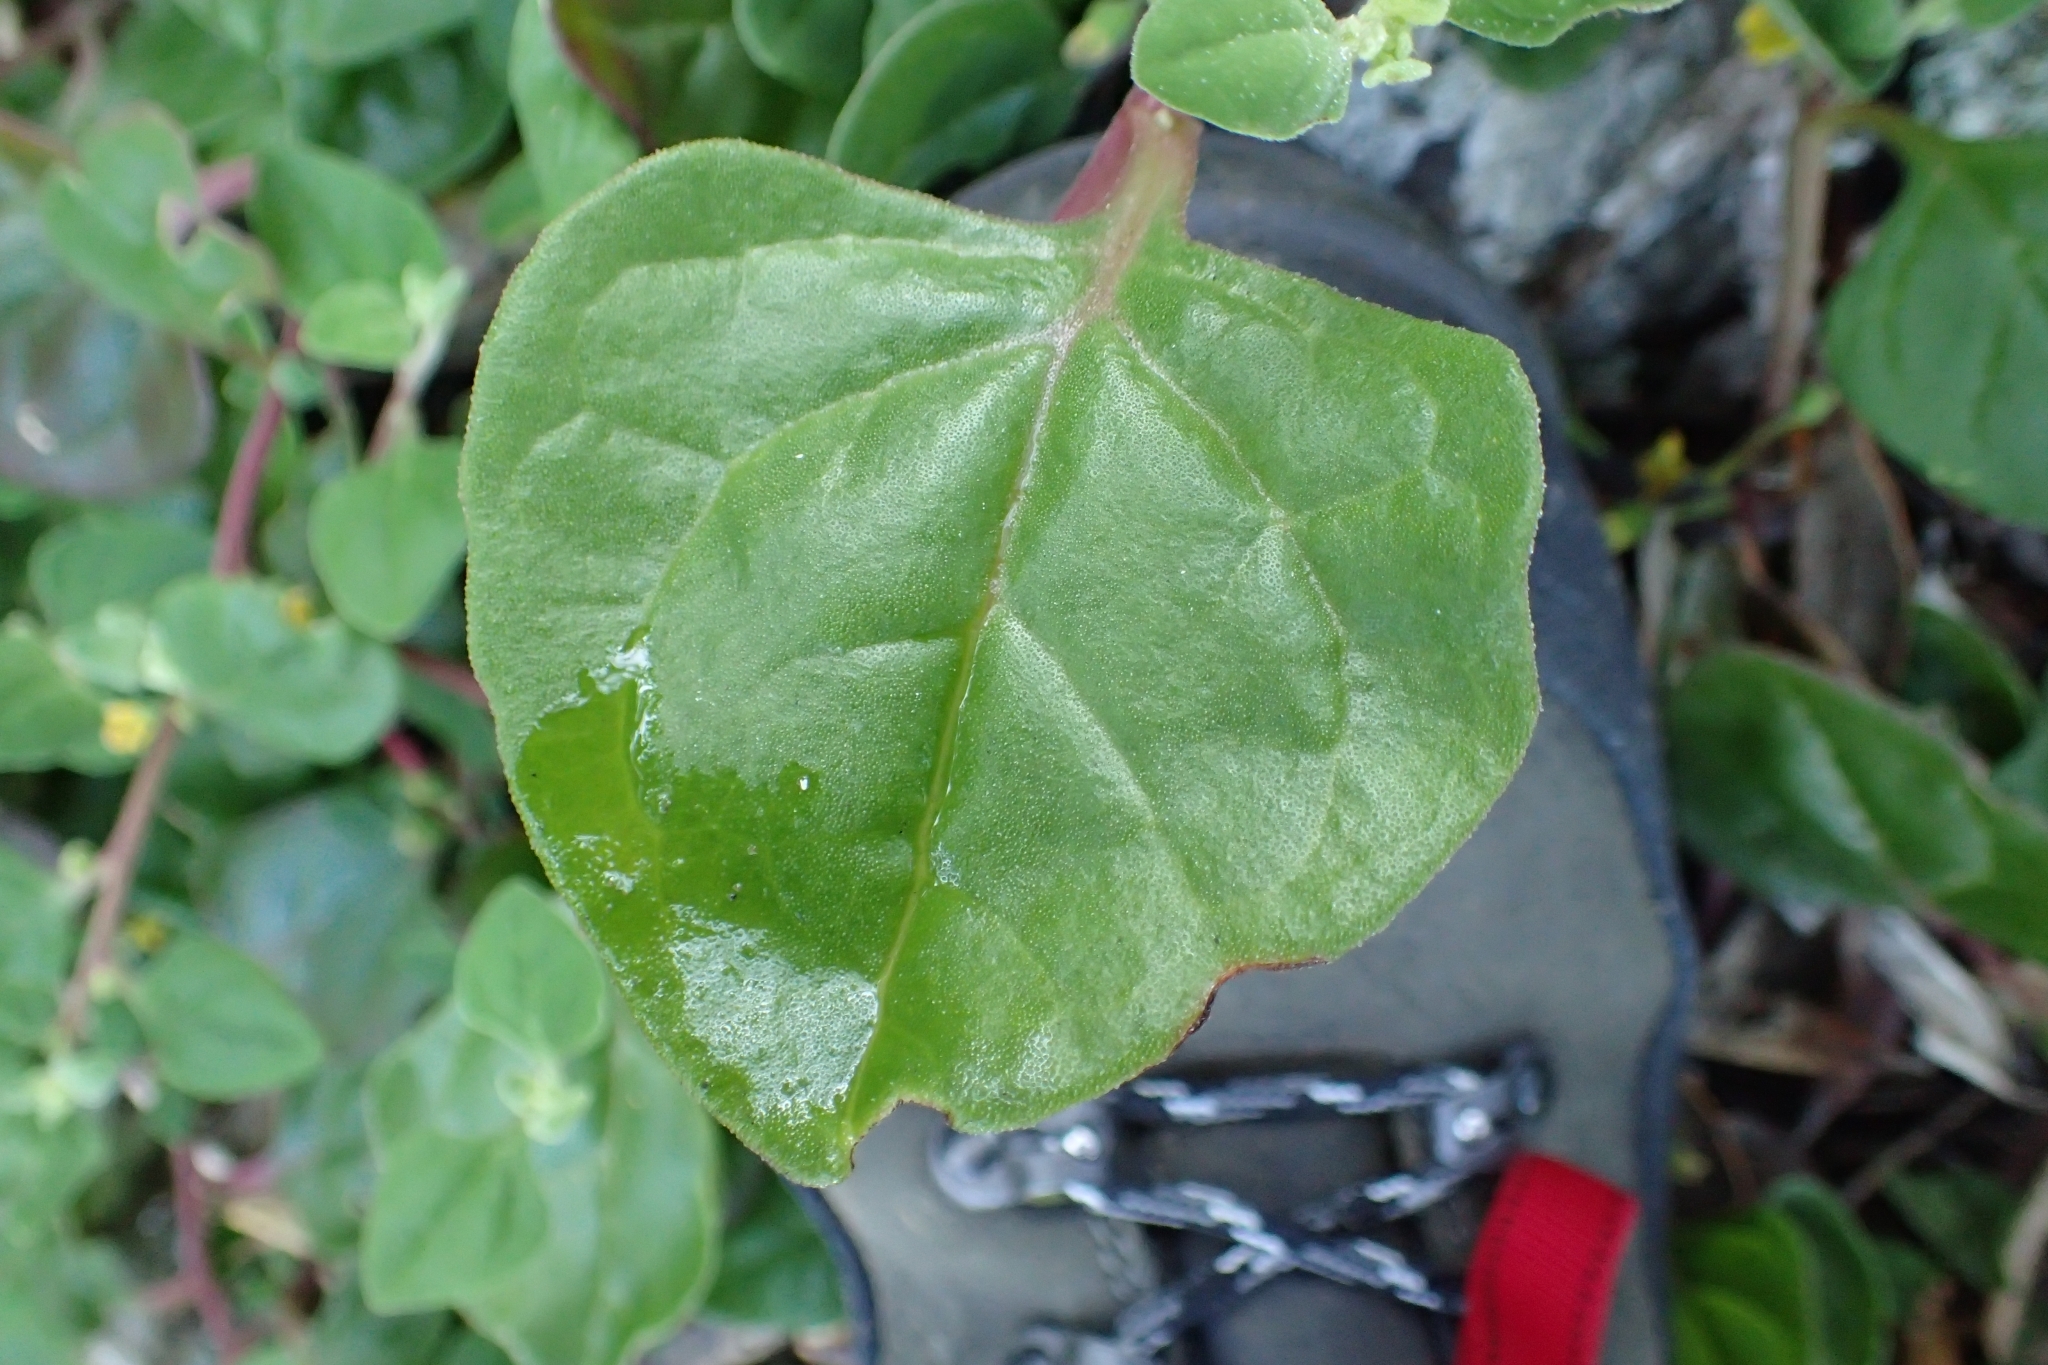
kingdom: Plantae
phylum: Tracheophyta
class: Magnoliopsida
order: Caryophyllales
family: Aizoaceae
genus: Tetragonia
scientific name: Tetragonia implexicoma
